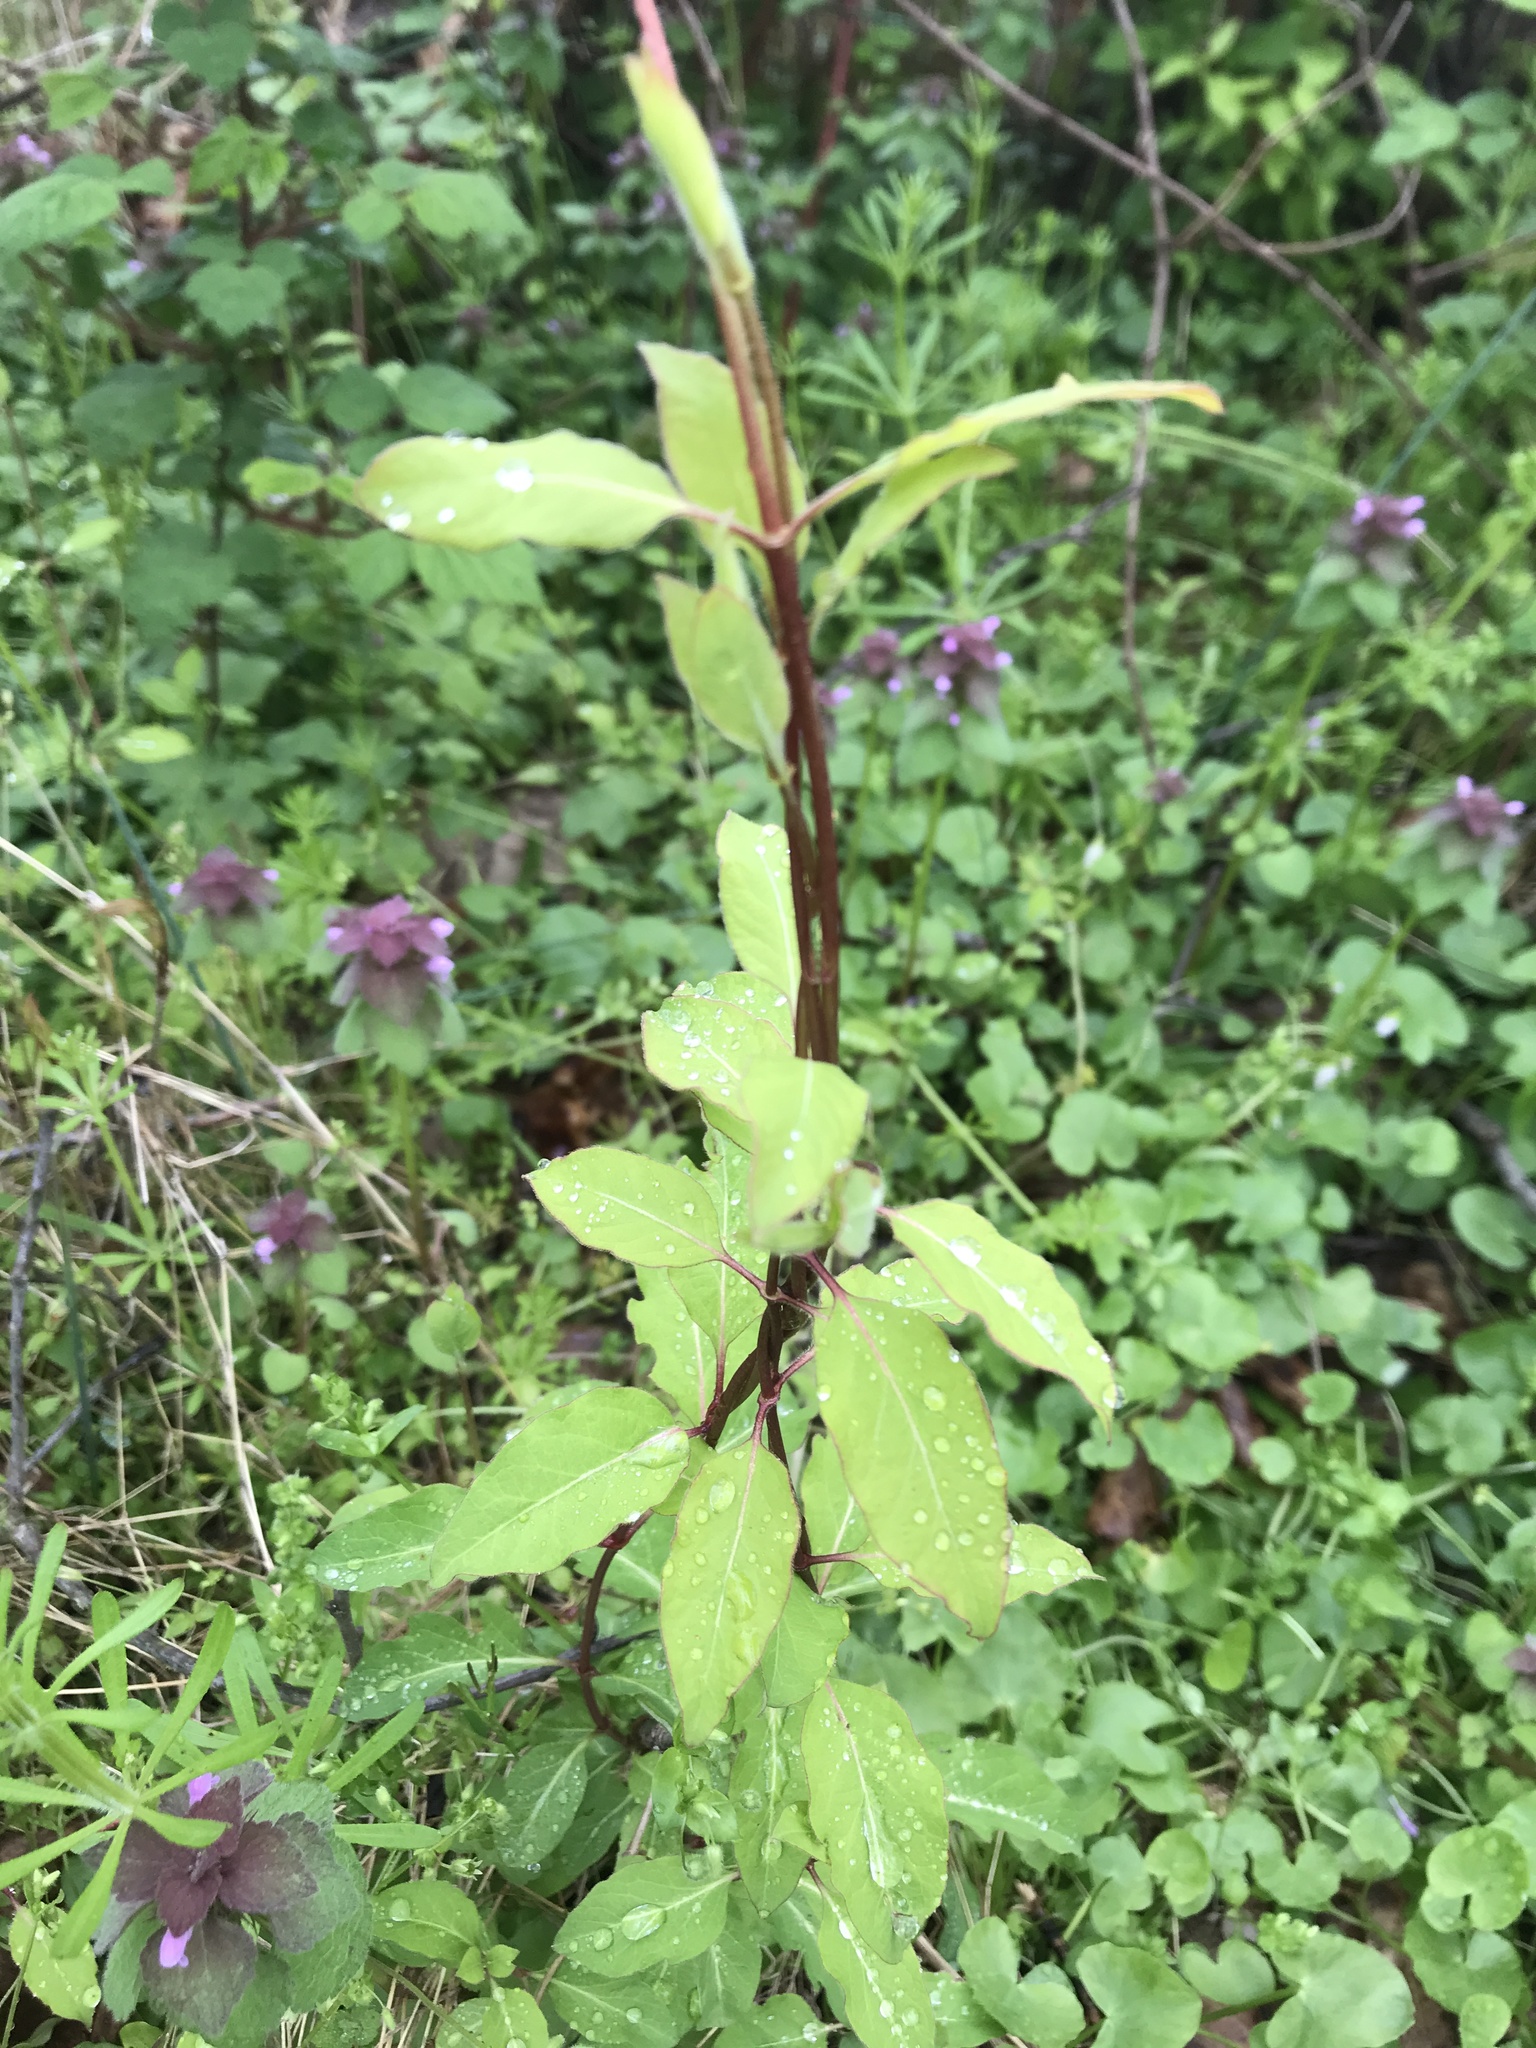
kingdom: Plantae
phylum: Tracheophyta
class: Magnoliopsida
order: Dipsacales
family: Caprifoliaceae
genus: Lonicera
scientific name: Lonicera japonica
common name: Japanese honeysuckle
